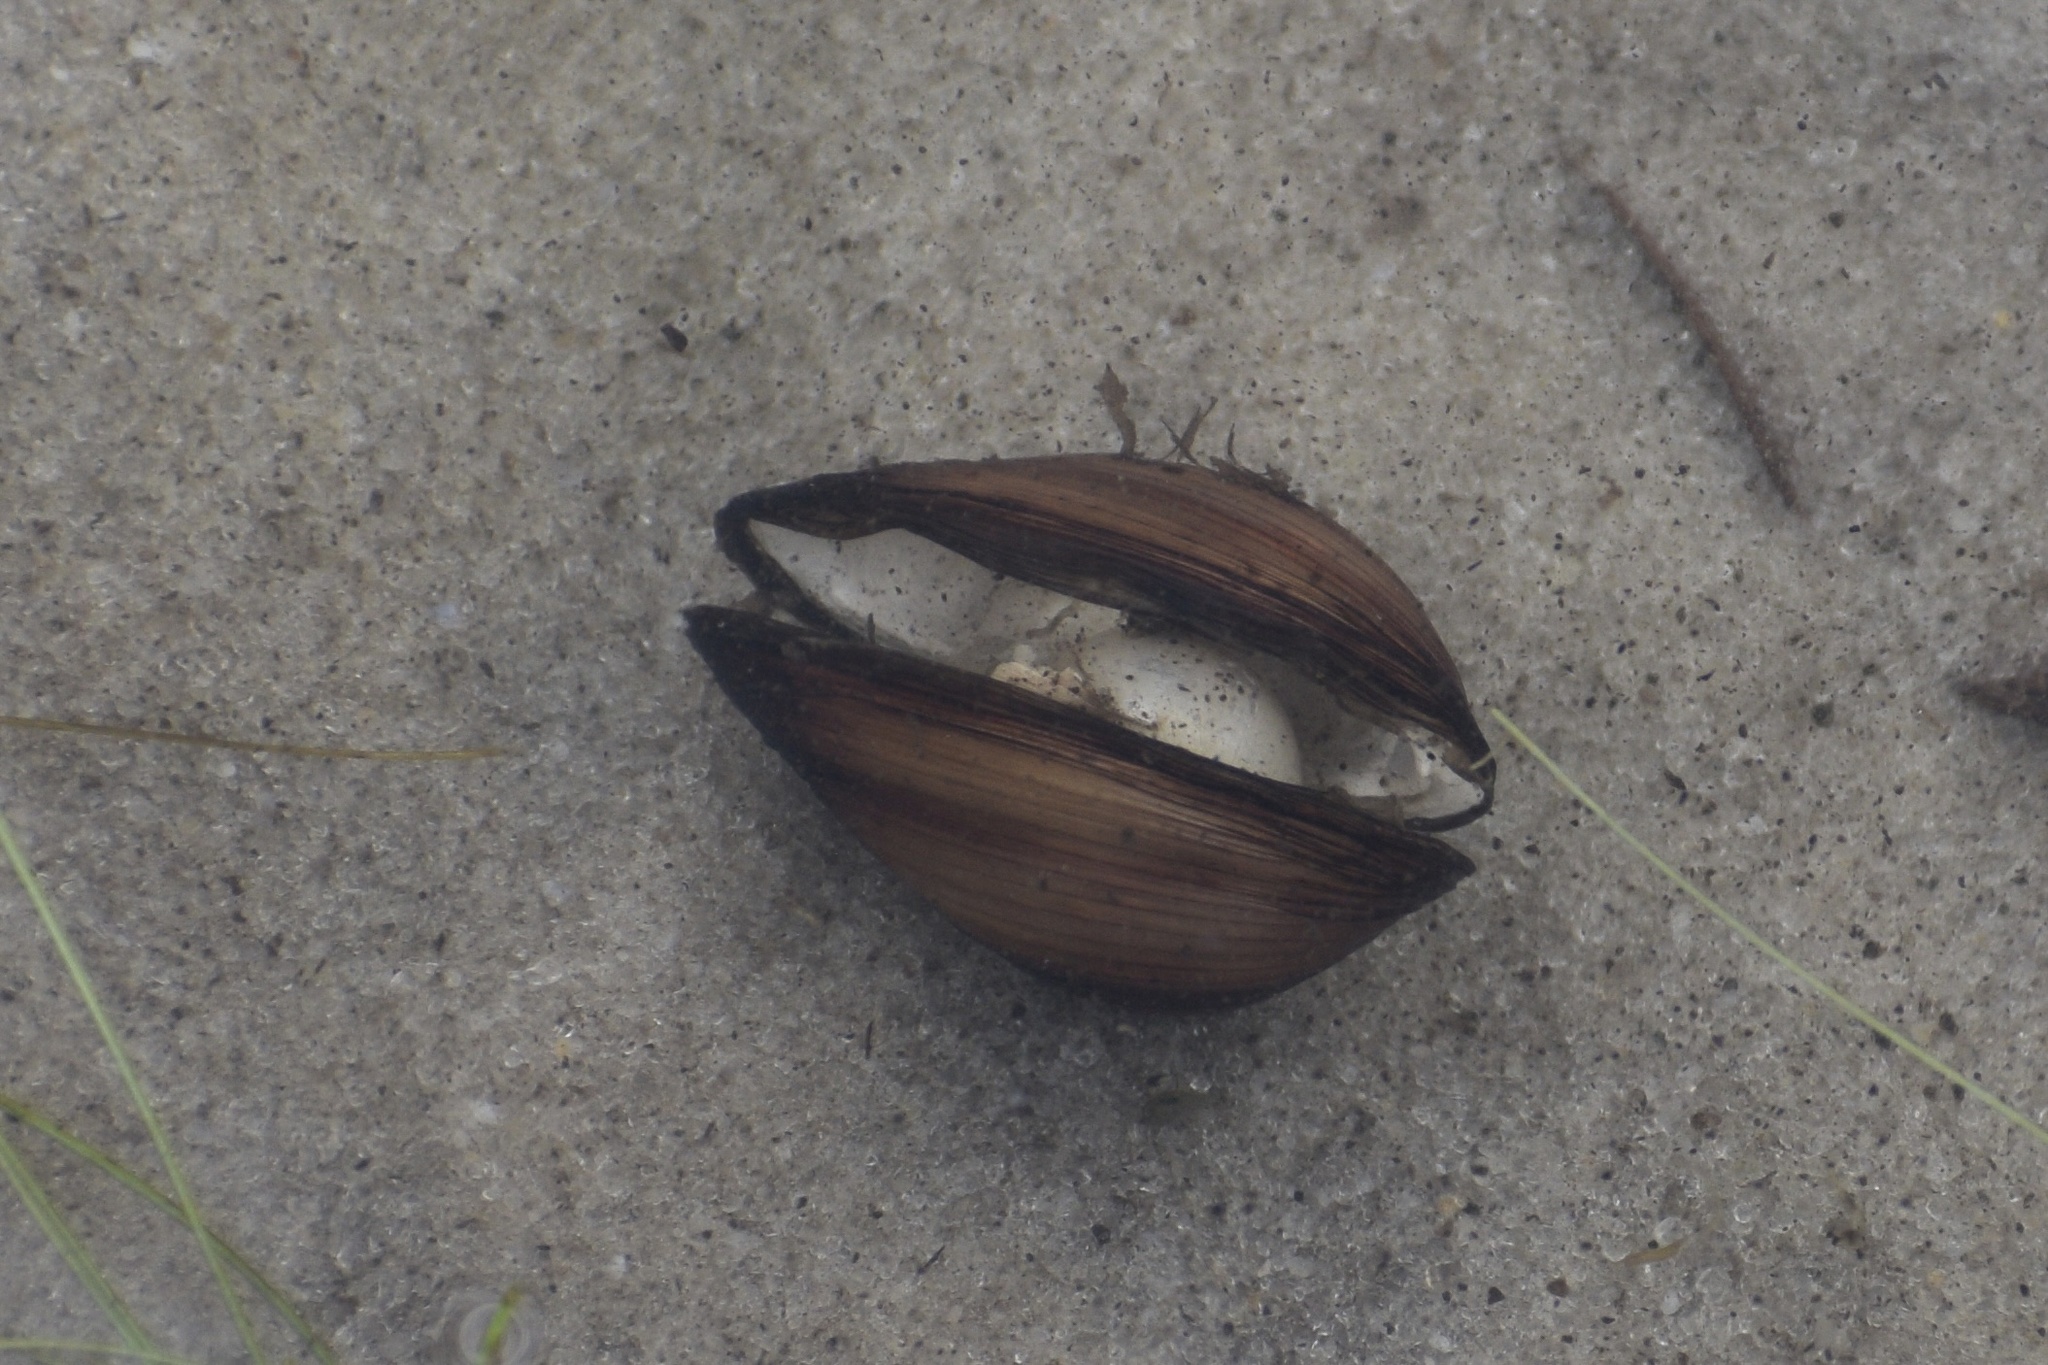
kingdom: Animalia
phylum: Mollusca
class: Bivalvia
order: Venerida
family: Cyrenidae
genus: Corbicula
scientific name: Corbicula fluminea
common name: Asian clam
